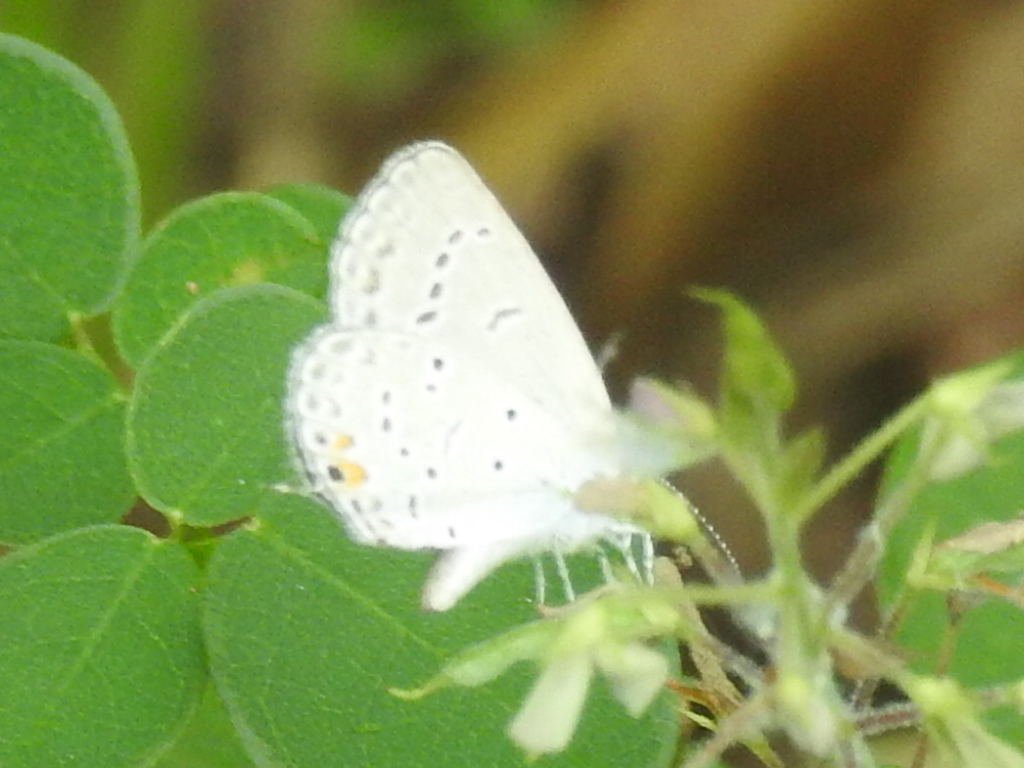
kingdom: Animalia
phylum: Arthropoda
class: Insecta
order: Lepidoptera
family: Lycaenidae
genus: Elkalyce
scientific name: Elkalyce comyntas
